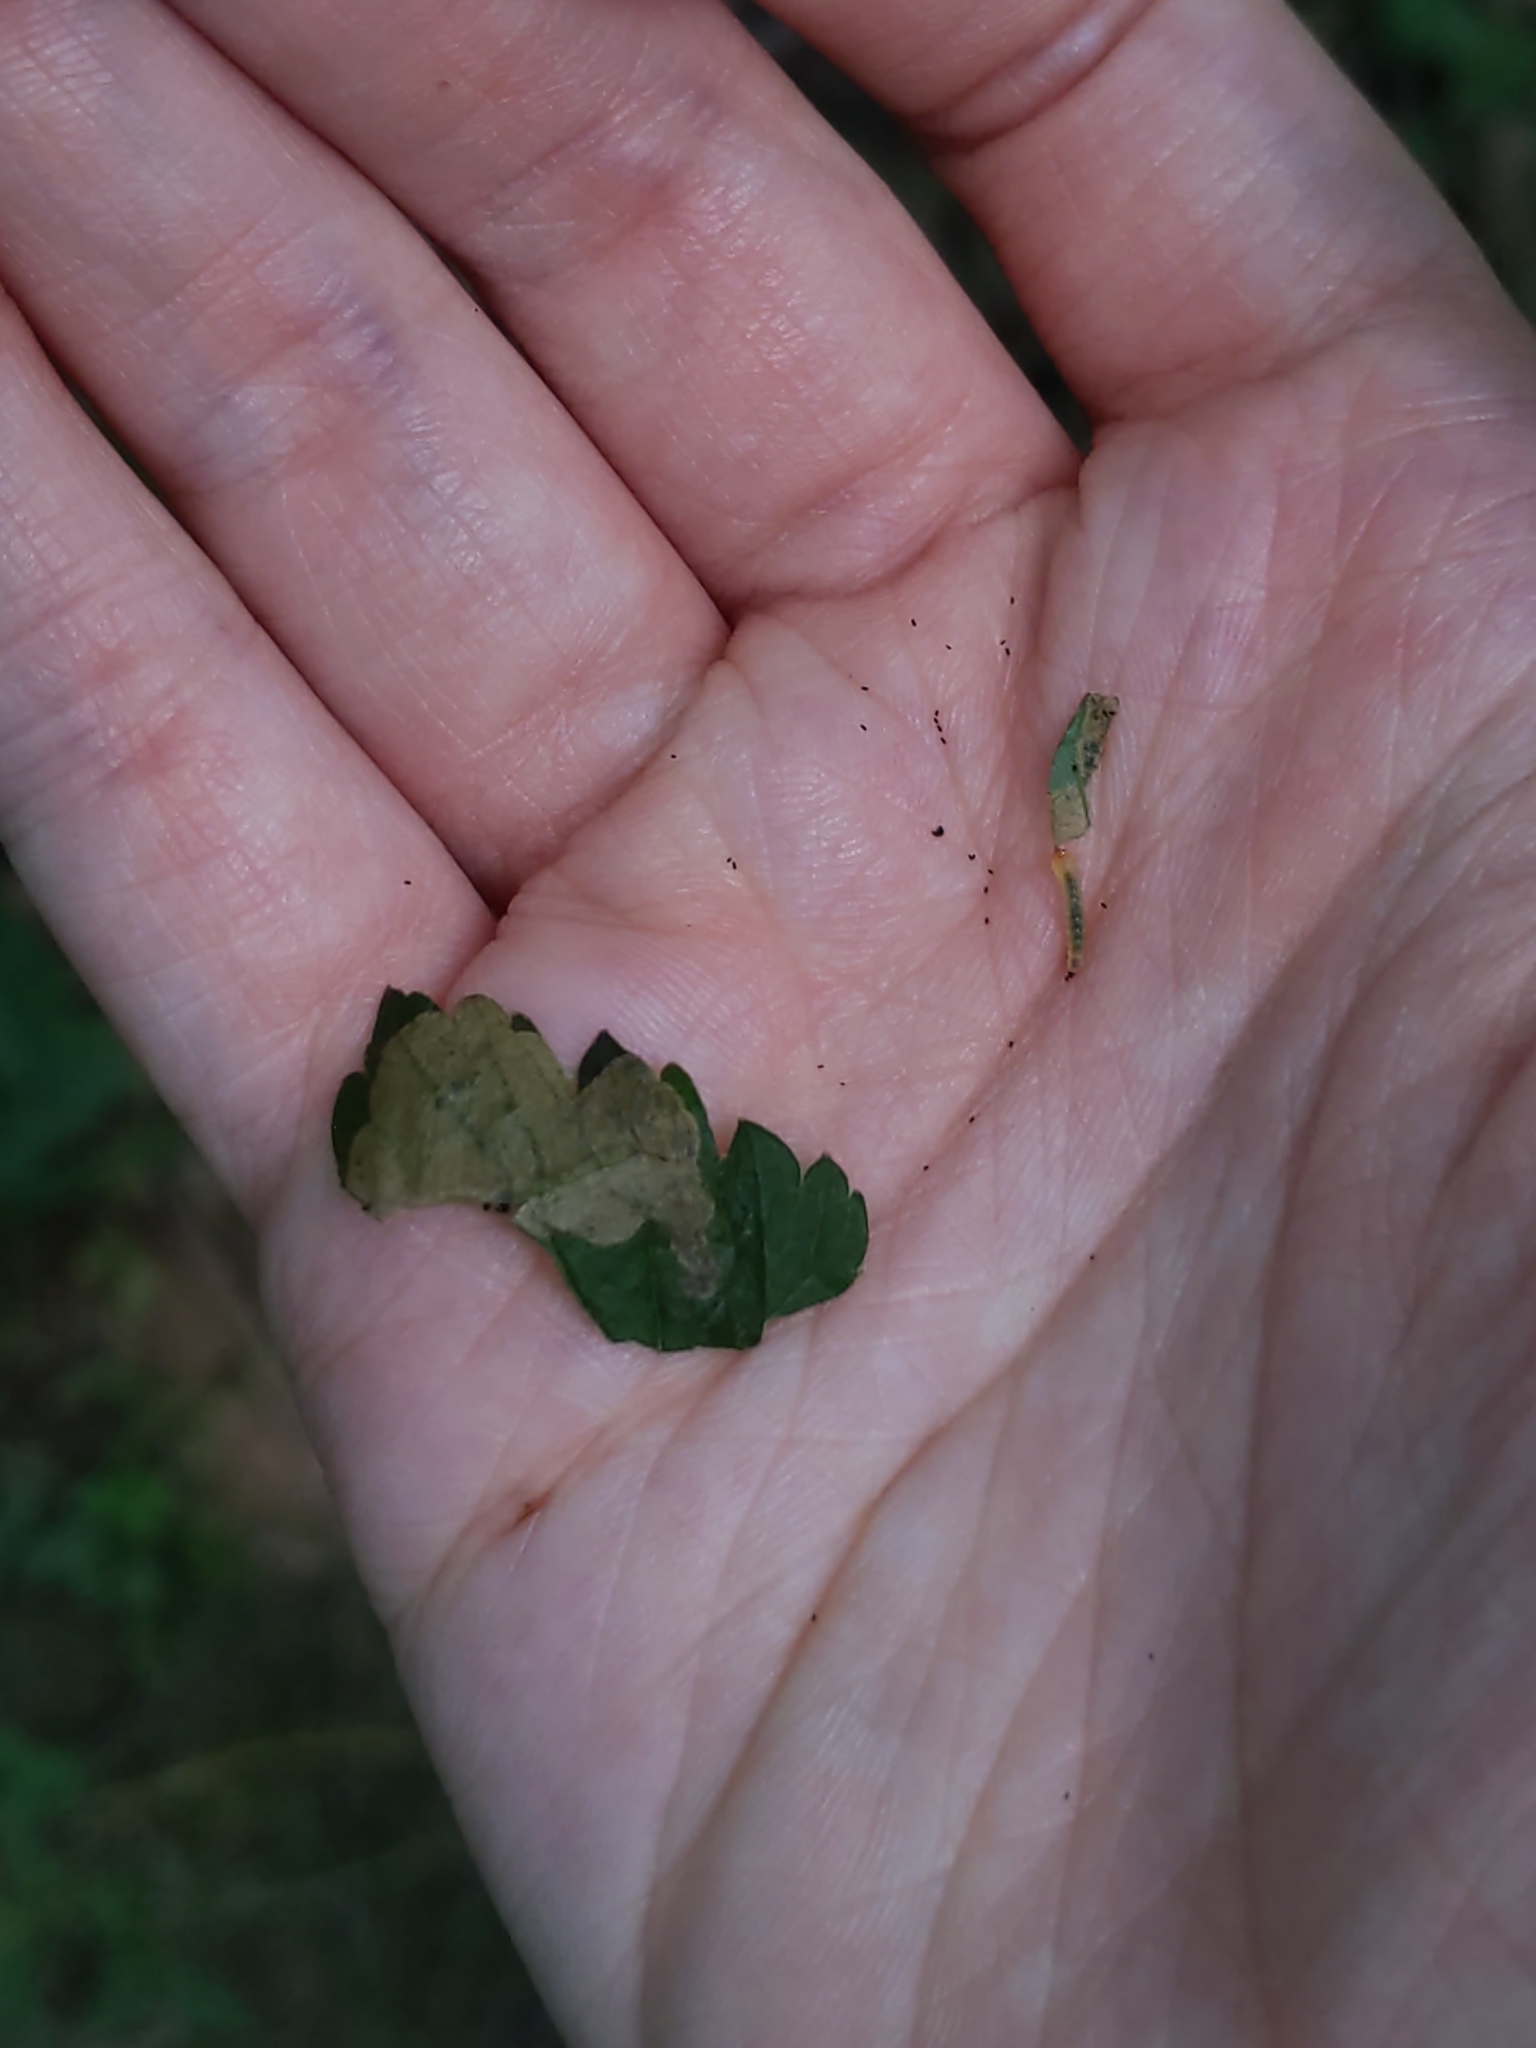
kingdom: Animalia
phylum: Arthropoda
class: Insecta
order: Hymenoptera
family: Tenthredinidae
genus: Metallus
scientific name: Metallus lanceolatus
